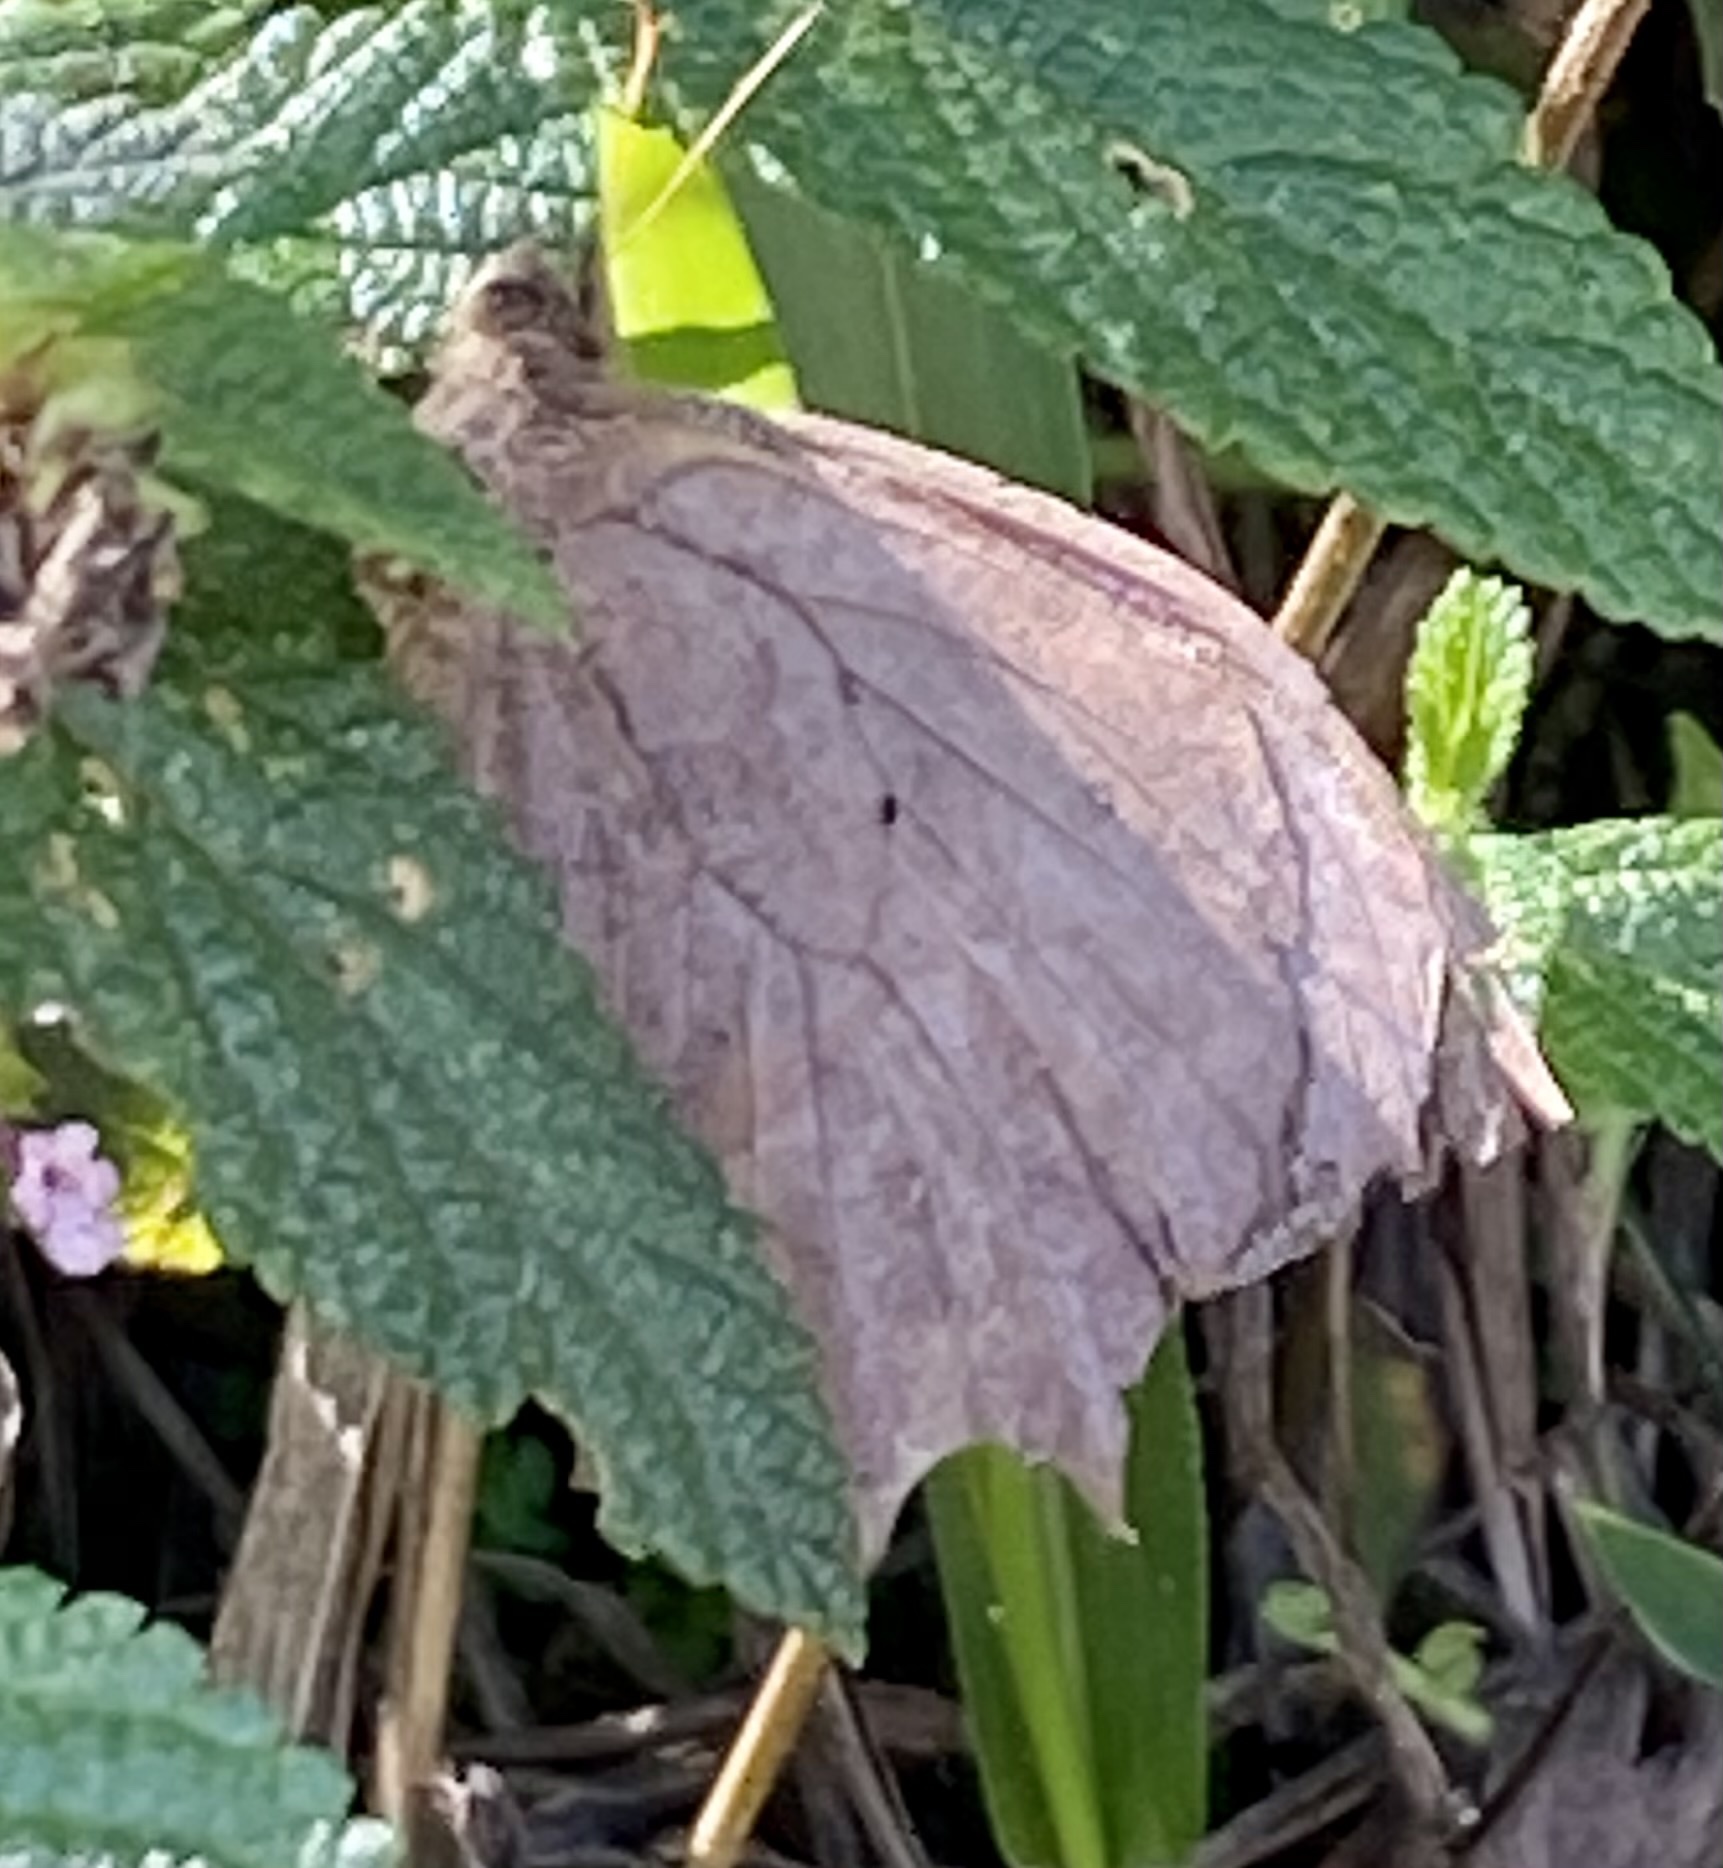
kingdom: Animalia
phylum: Arthropoda
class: Insecta
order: Lepidoptera
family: Nymphalidae
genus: Taguaiba
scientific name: Taguaiba
